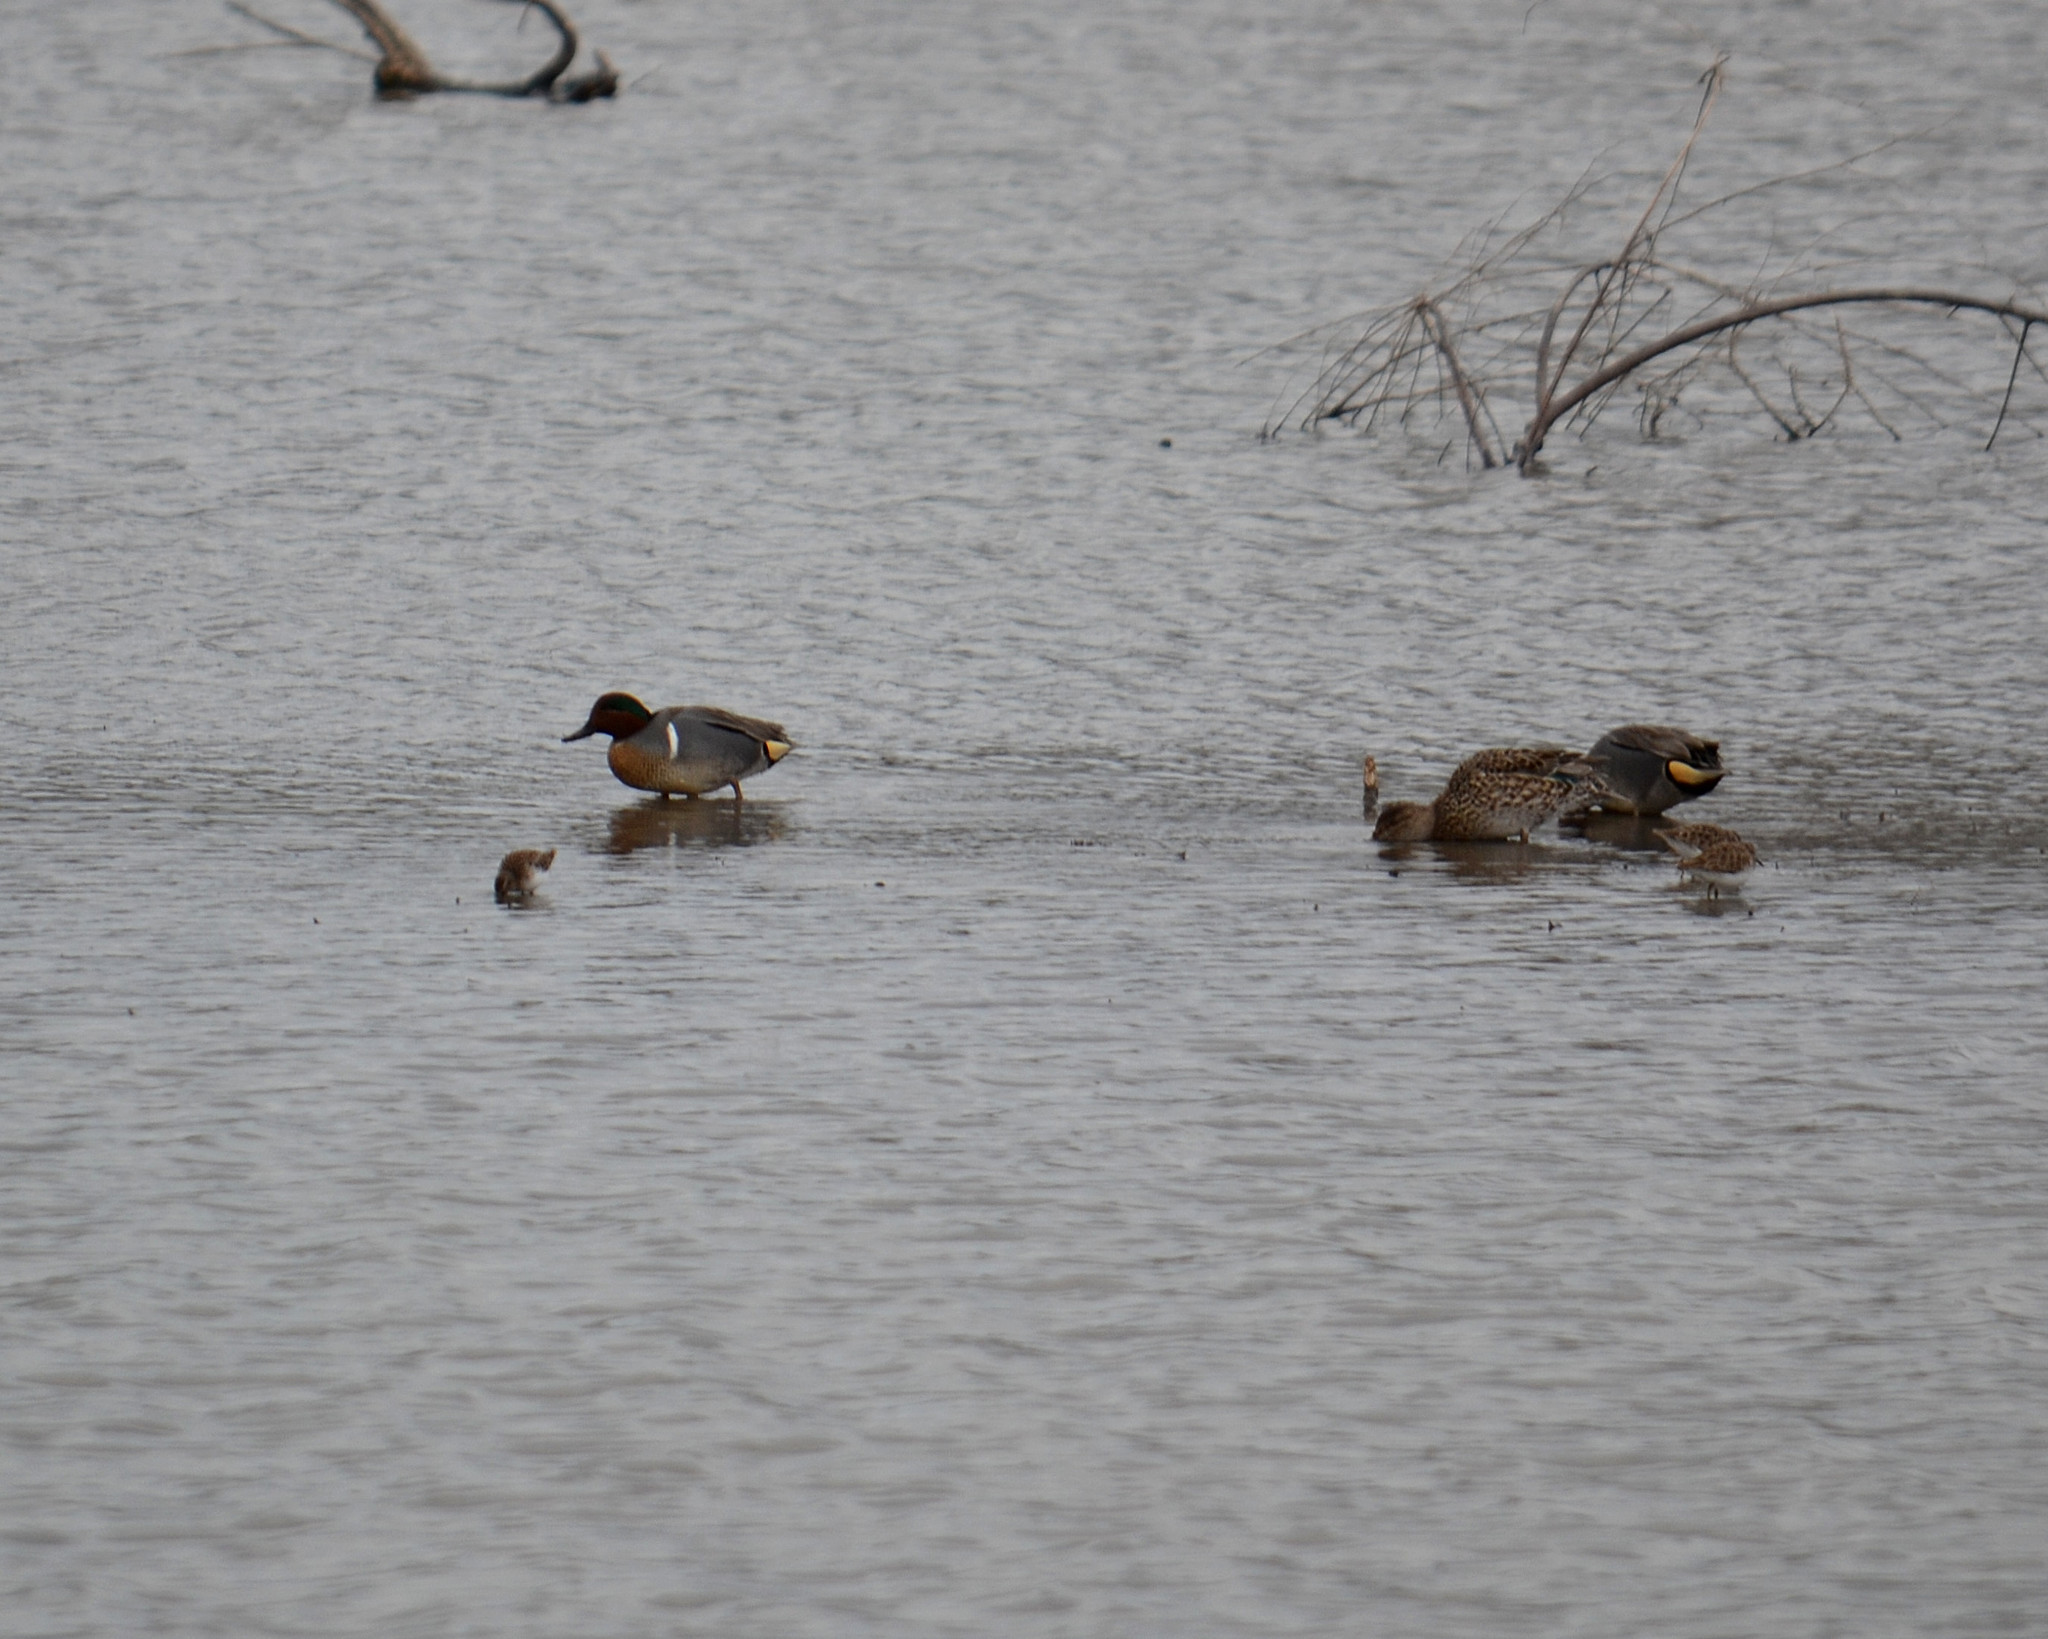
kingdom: Animalia
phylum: Chordata
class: Aves
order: Anseriformes
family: Anatidae
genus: Anas
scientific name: Anas crecca
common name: Eurasian teal
